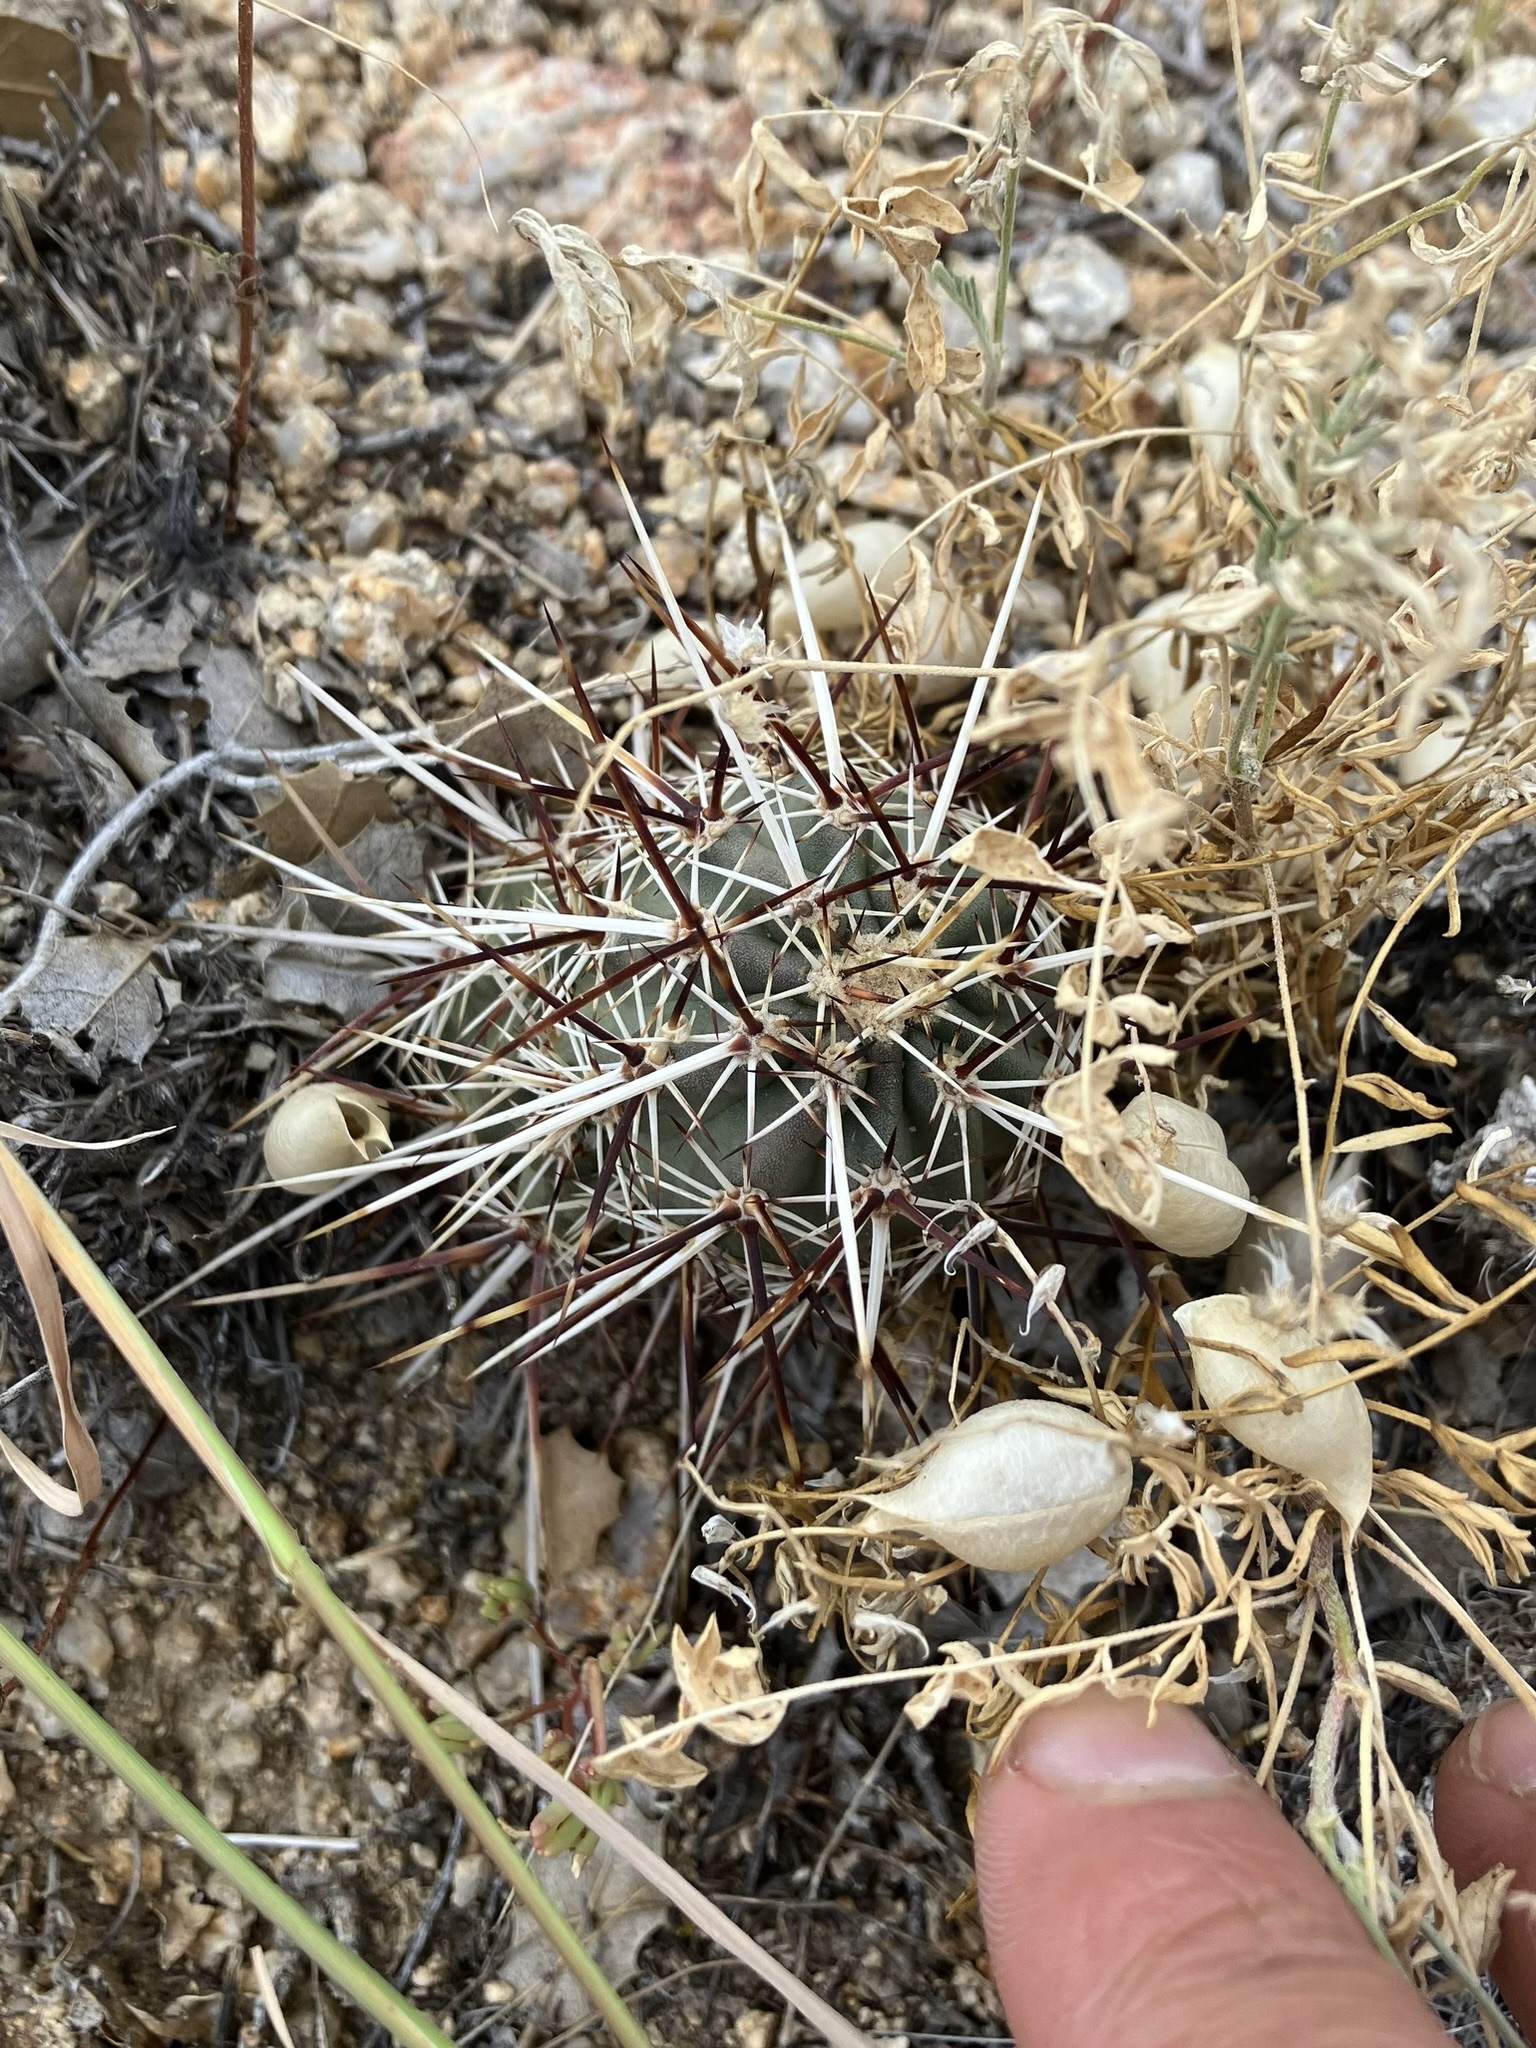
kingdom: Plantae
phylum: Tracheophyta
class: Magnoliopsida
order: Caryophyllales
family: Cactaceae
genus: Echinocereus
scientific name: Echinocereus engelmannii
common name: Engelmann's hedgehog cactus
